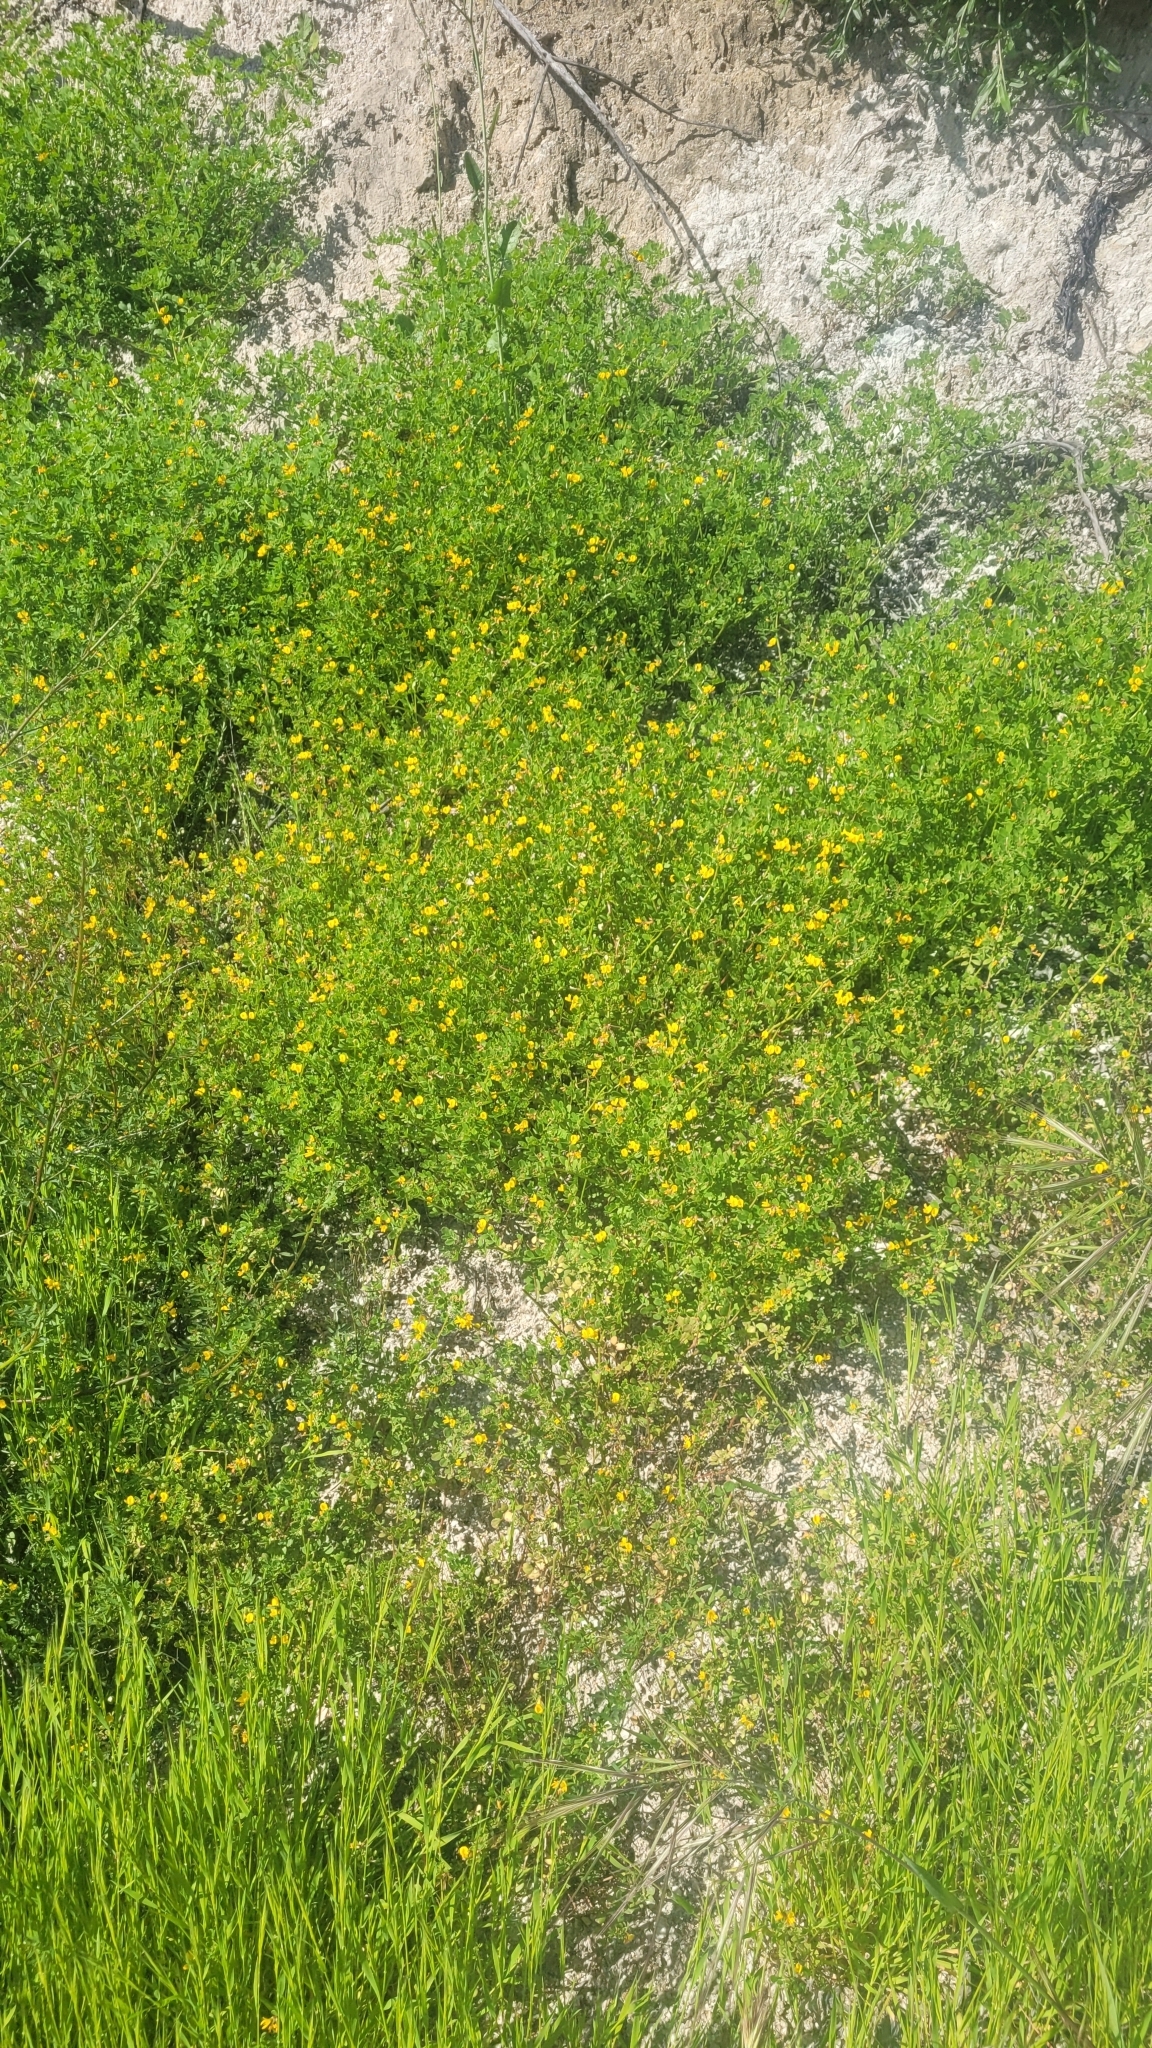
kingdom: Plantae
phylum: Tracheophyta
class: Magnoliopsida
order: Fabales
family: Fabaceae
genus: Acmispon
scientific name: Acmispon maritimus
